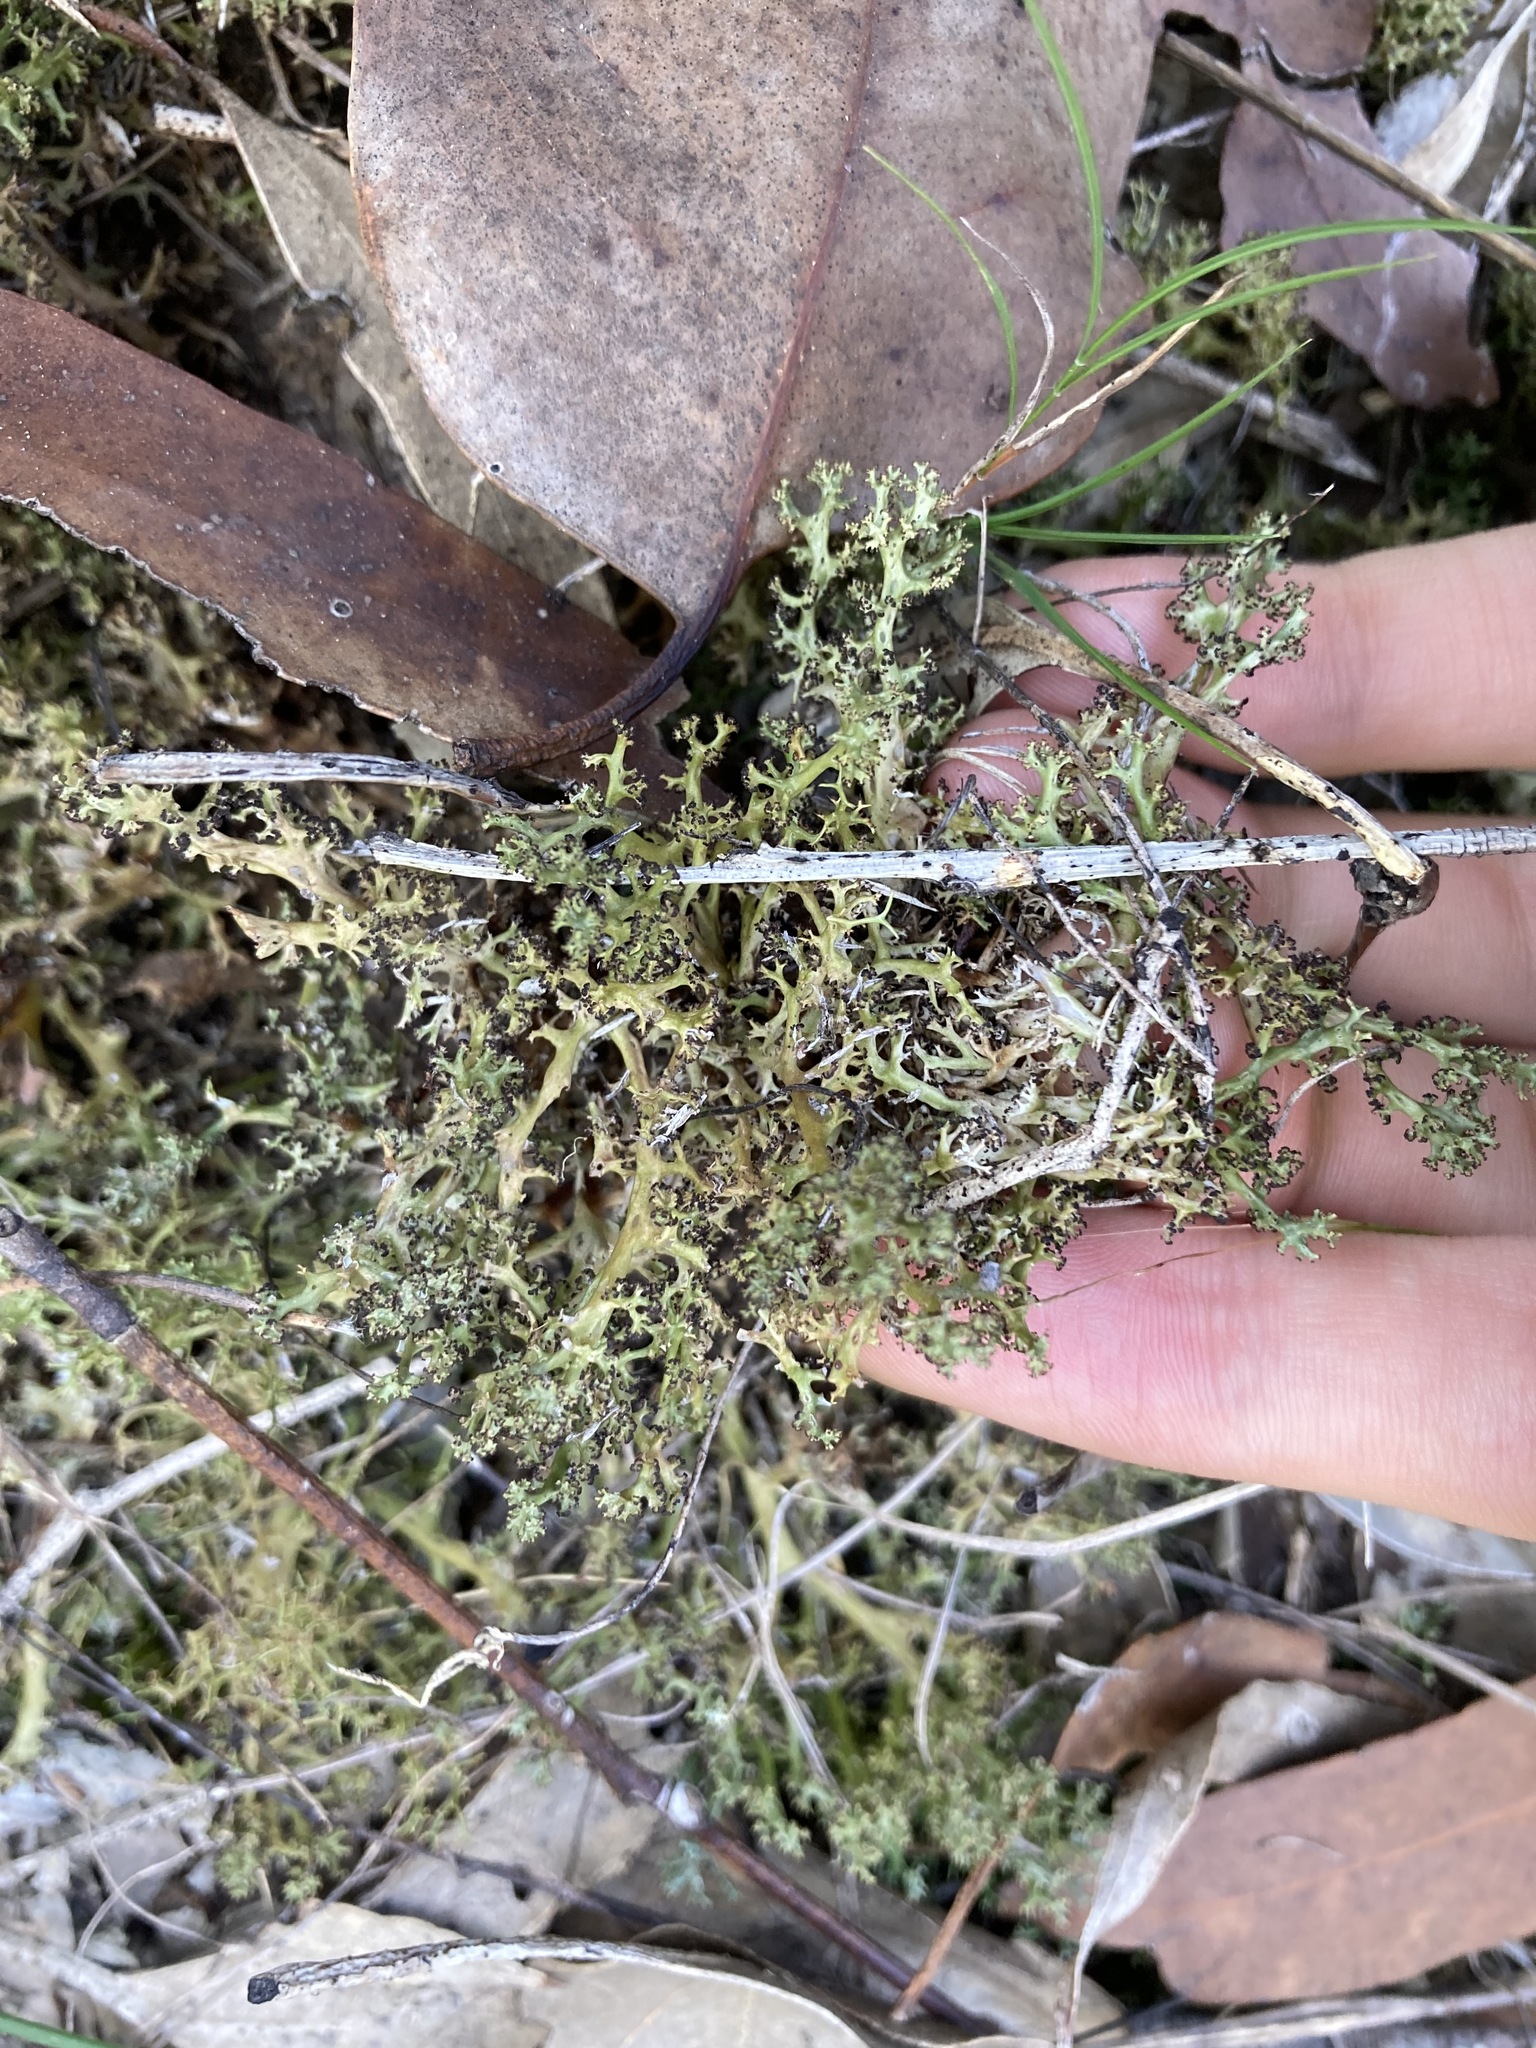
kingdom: Fungi
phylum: Ascomycota
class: Lecanoromycetes
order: Lecanorales
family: Cladoniaceae
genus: Cladia
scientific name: Cladia aggregata
